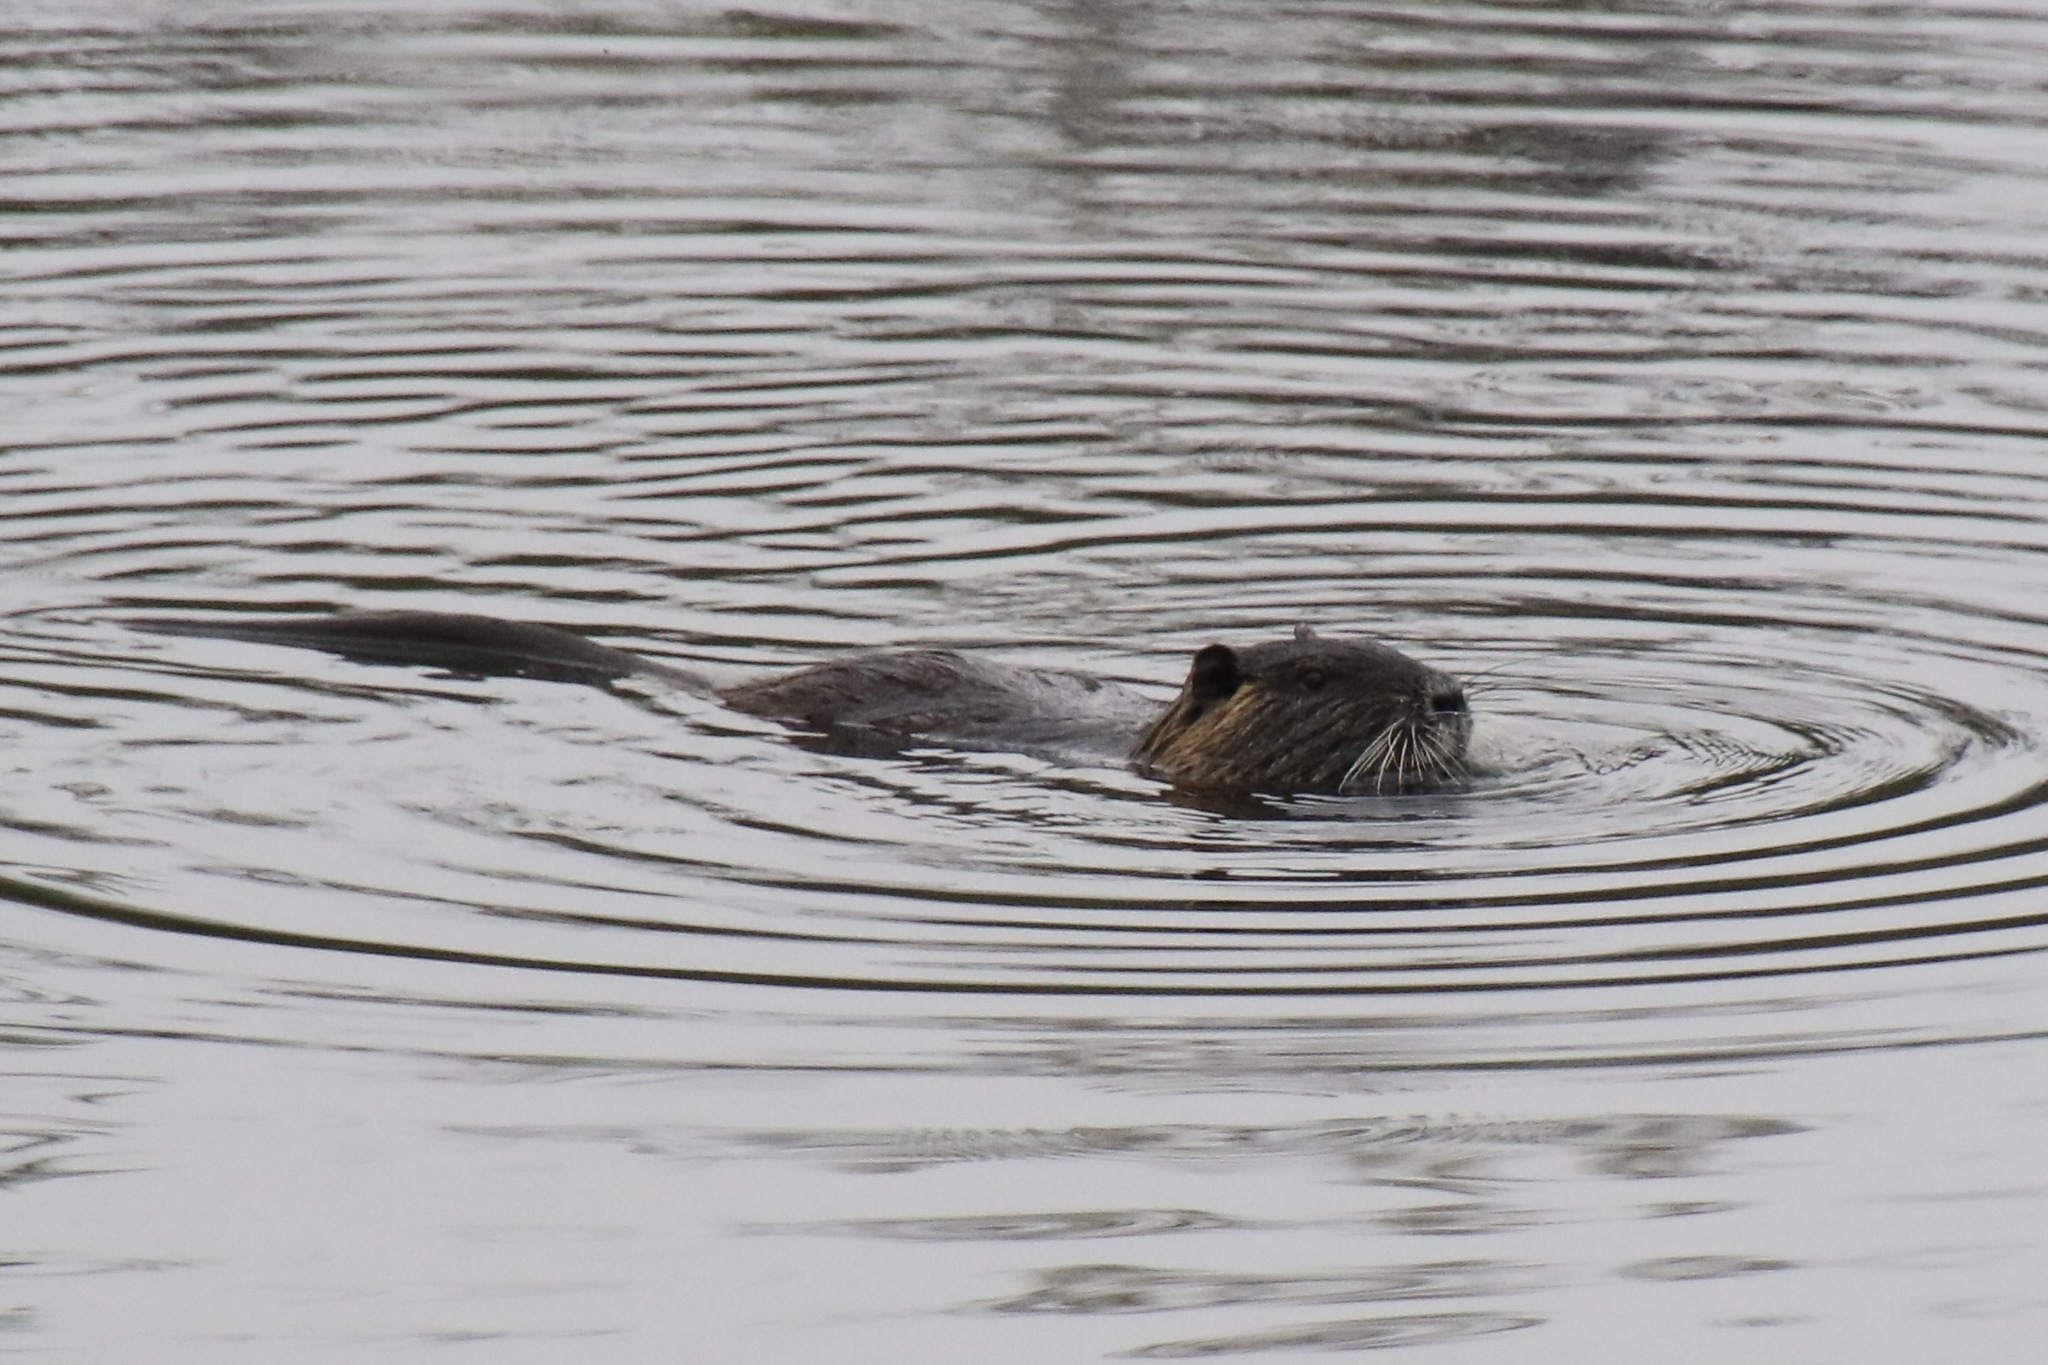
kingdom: Animalia
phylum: Chordata
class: Mammalia
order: Rodentia
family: Myocastoridae
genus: Myocastor
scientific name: Myocastor coypus
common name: Coypu
